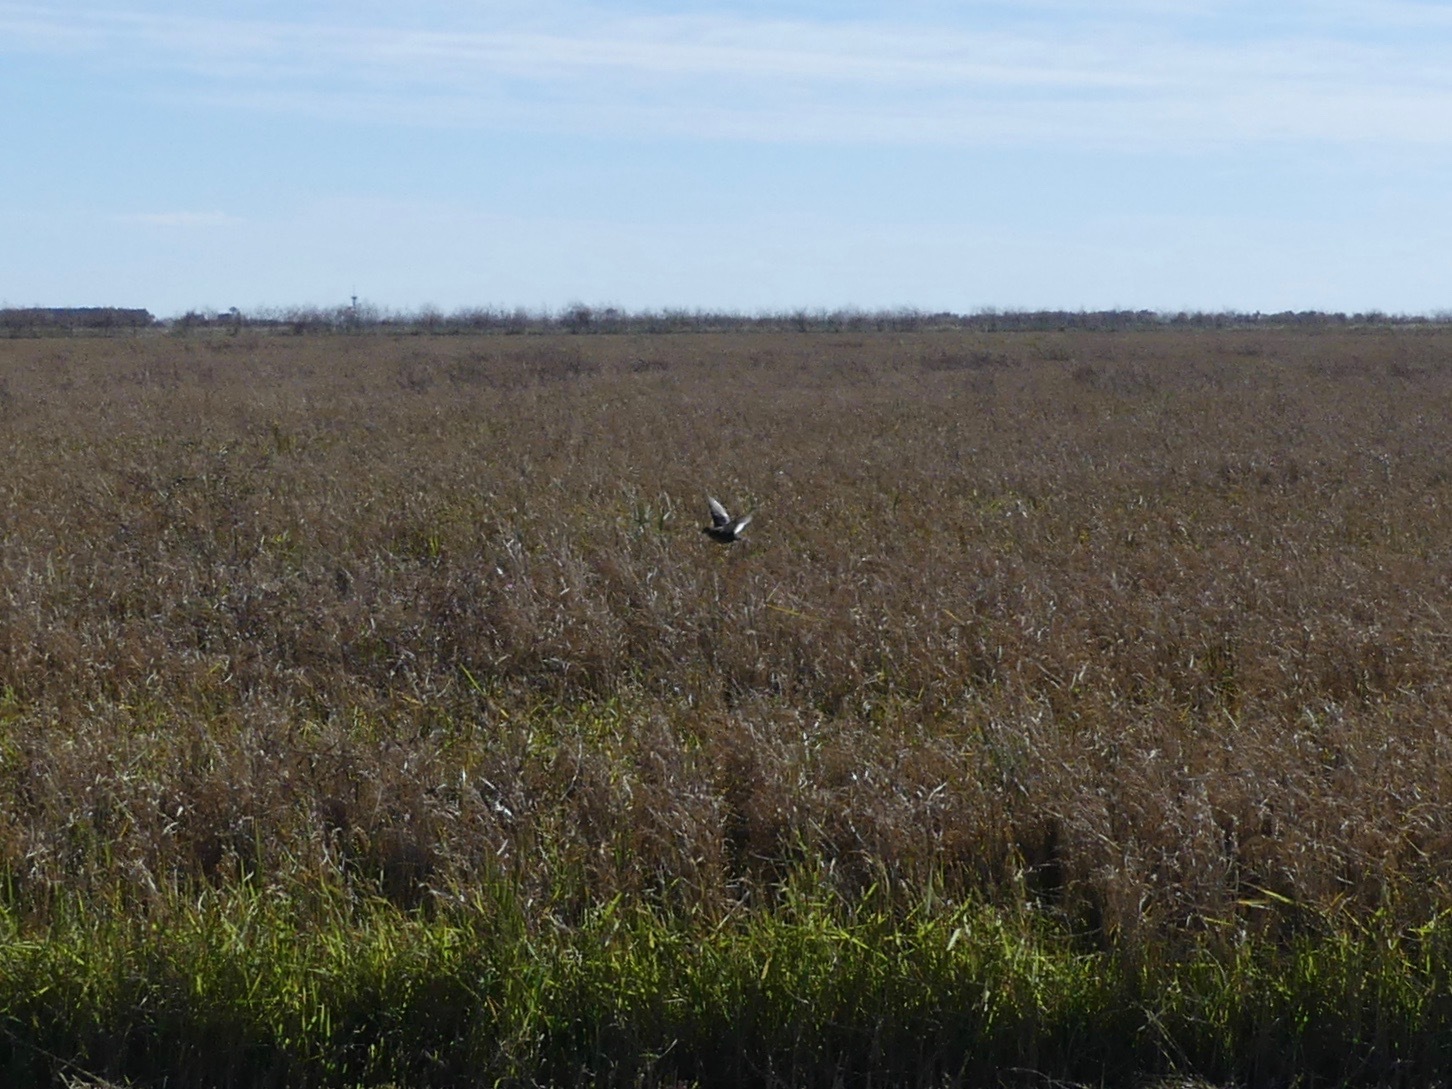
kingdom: Animalia
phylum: Chordata
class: Aves
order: Gruiformes
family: Rallidae
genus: Coturnicops
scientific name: Coturnicops noveboracensis
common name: Yellow rail
